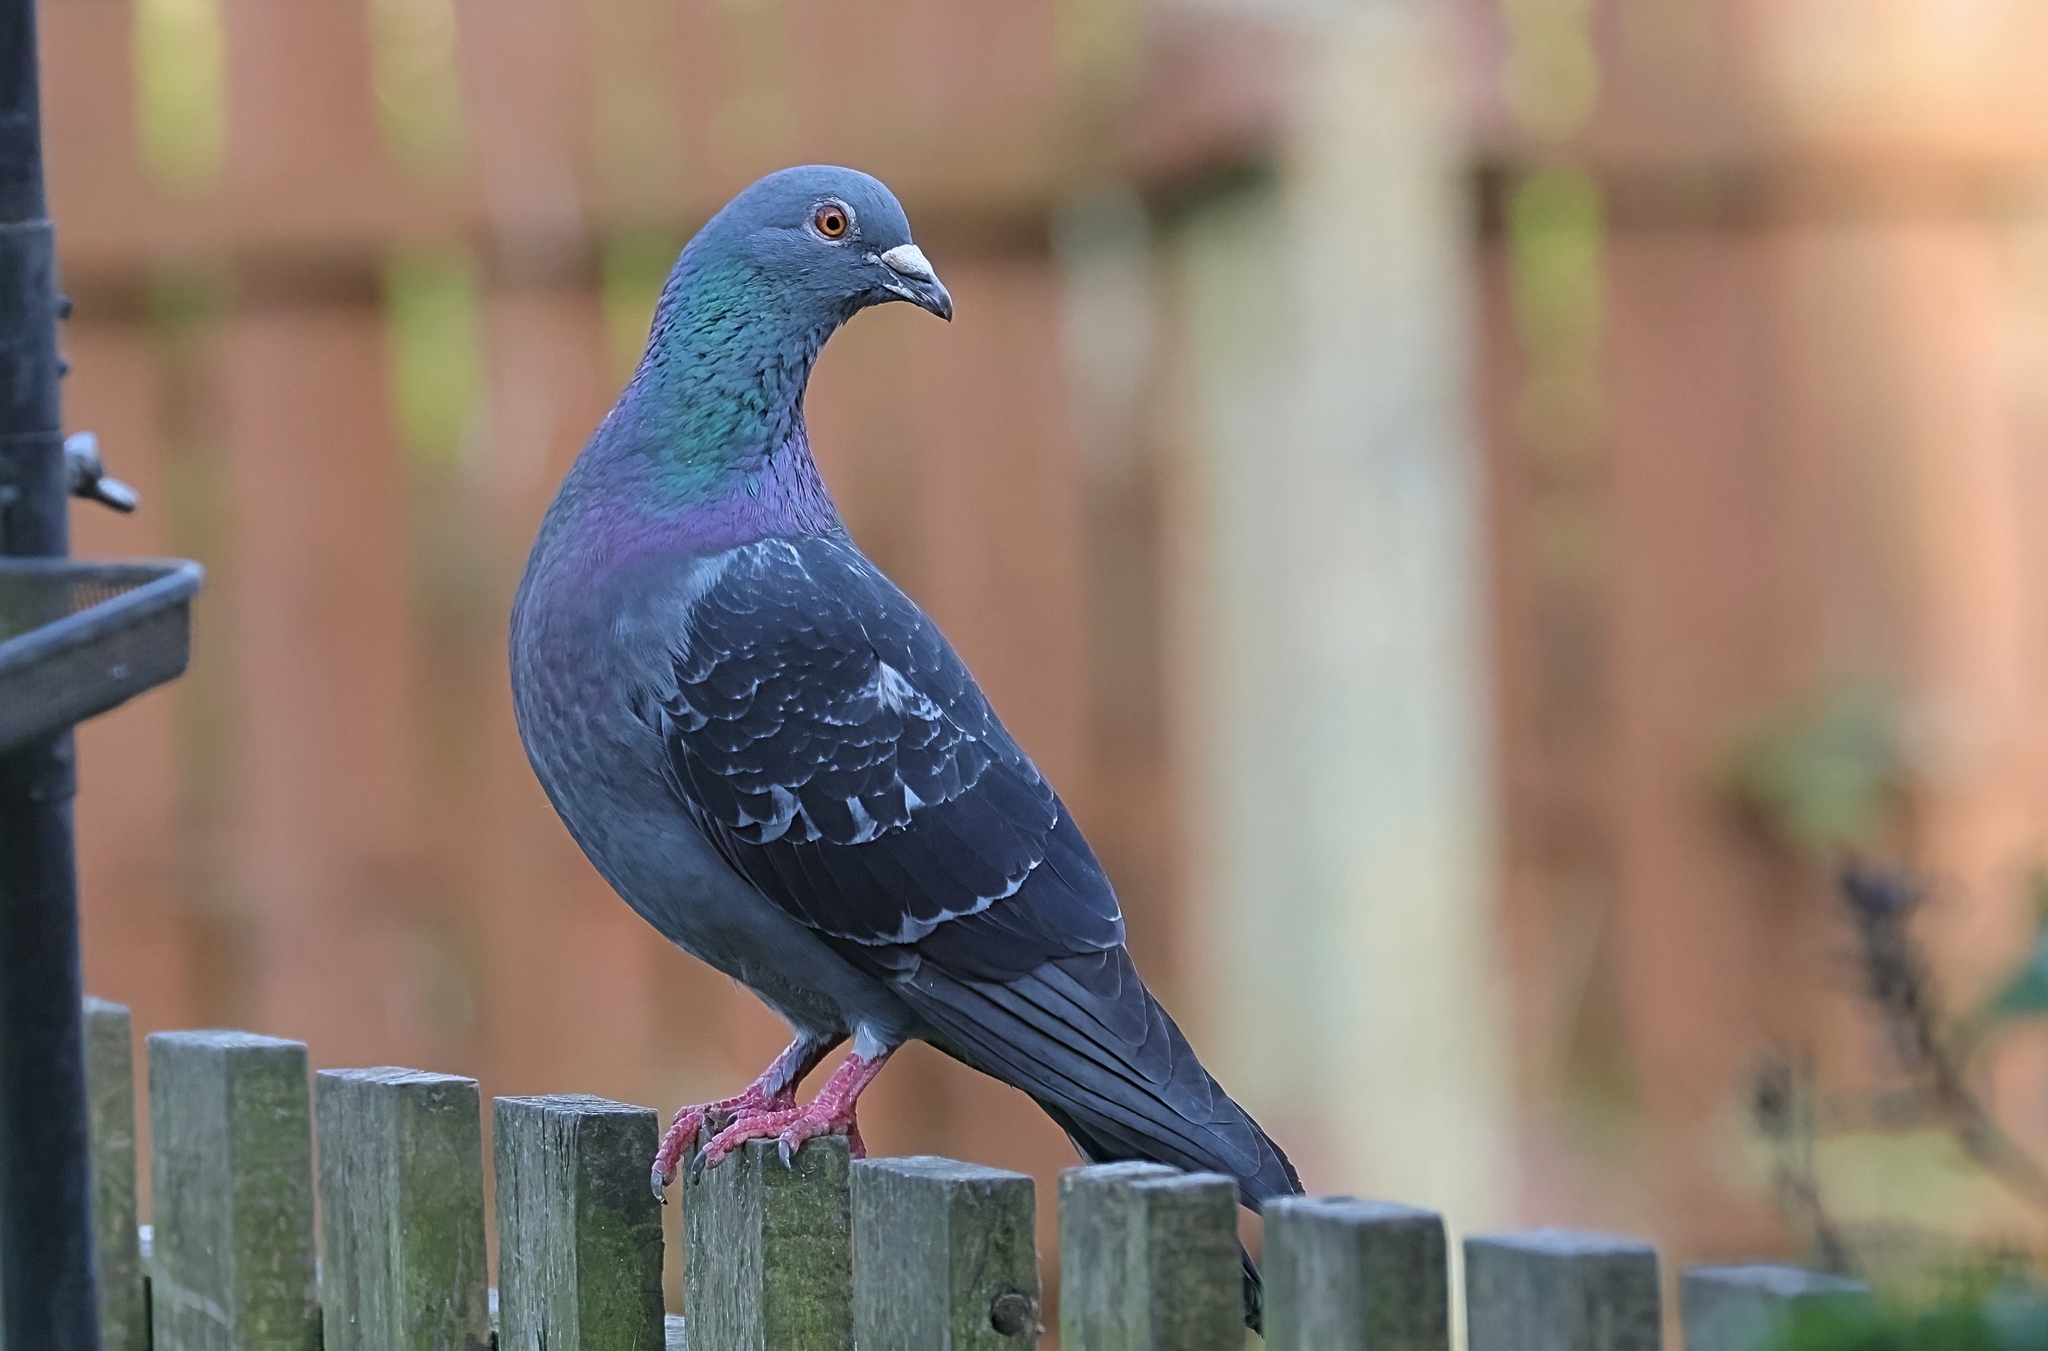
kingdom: Animalia
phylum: Chordata
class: Aves
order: Columbiformes
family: Columbidae
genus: Columba
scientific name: Columba livia
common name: Rock pigeon
